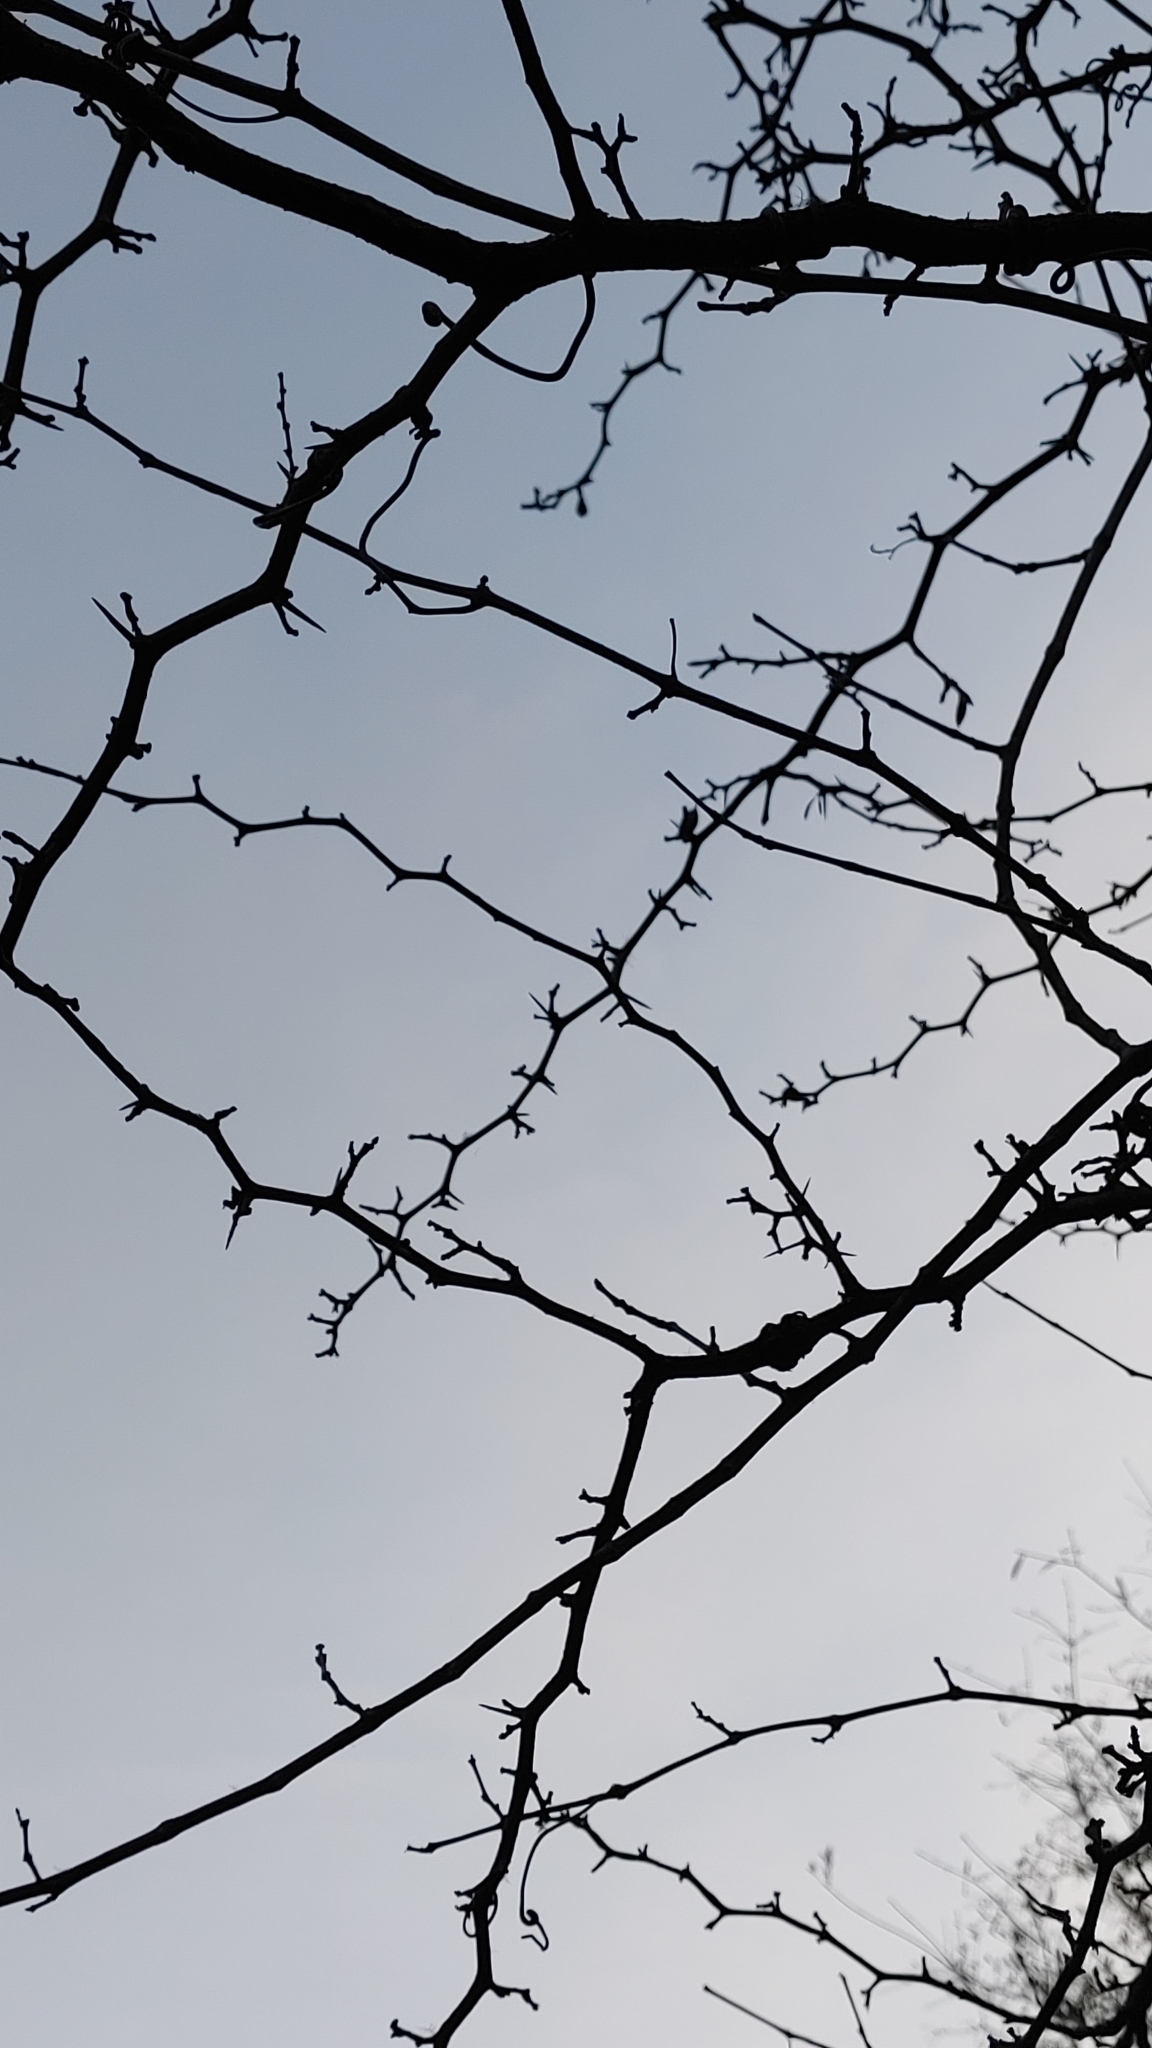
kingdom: Plantae
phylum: Tracheophyta
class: Magnoliopsida
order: Rosales
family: Rosaceae
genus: Crataegus
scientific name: Crataegus flava
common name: Yellow hawthorn
